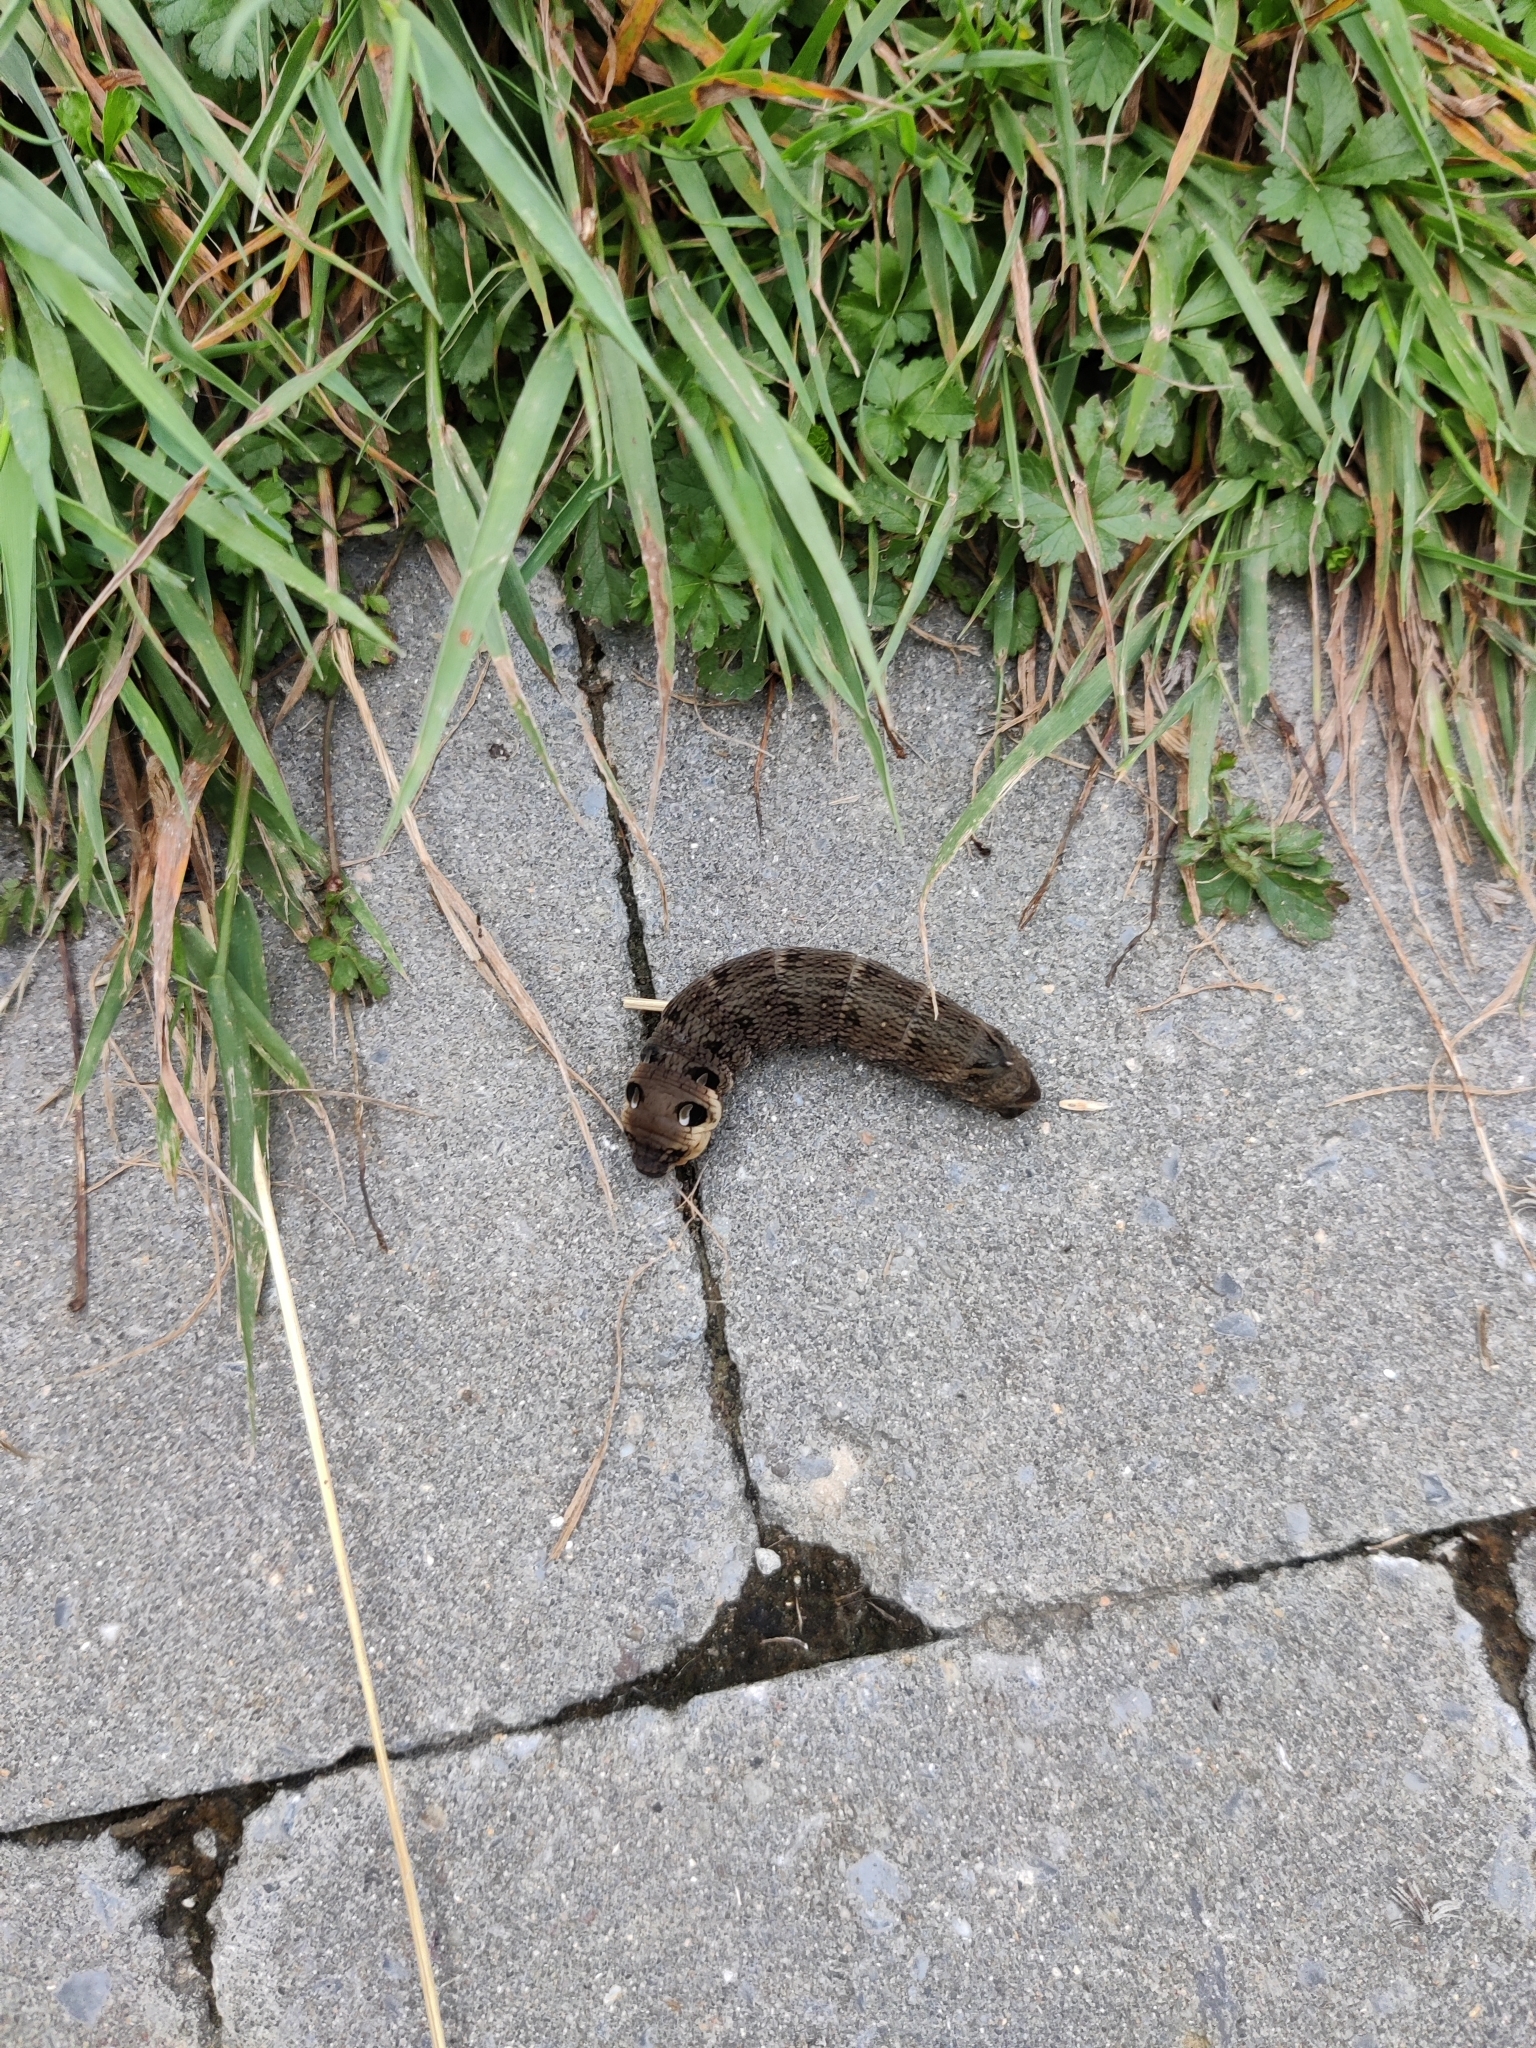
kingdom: Animalia
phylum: Arthropoda
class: Insecta
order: Lepidoptera
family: Sphingidae
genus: Deilephila
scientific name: Deilephila elpenor
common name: Elephant hawk-moth
